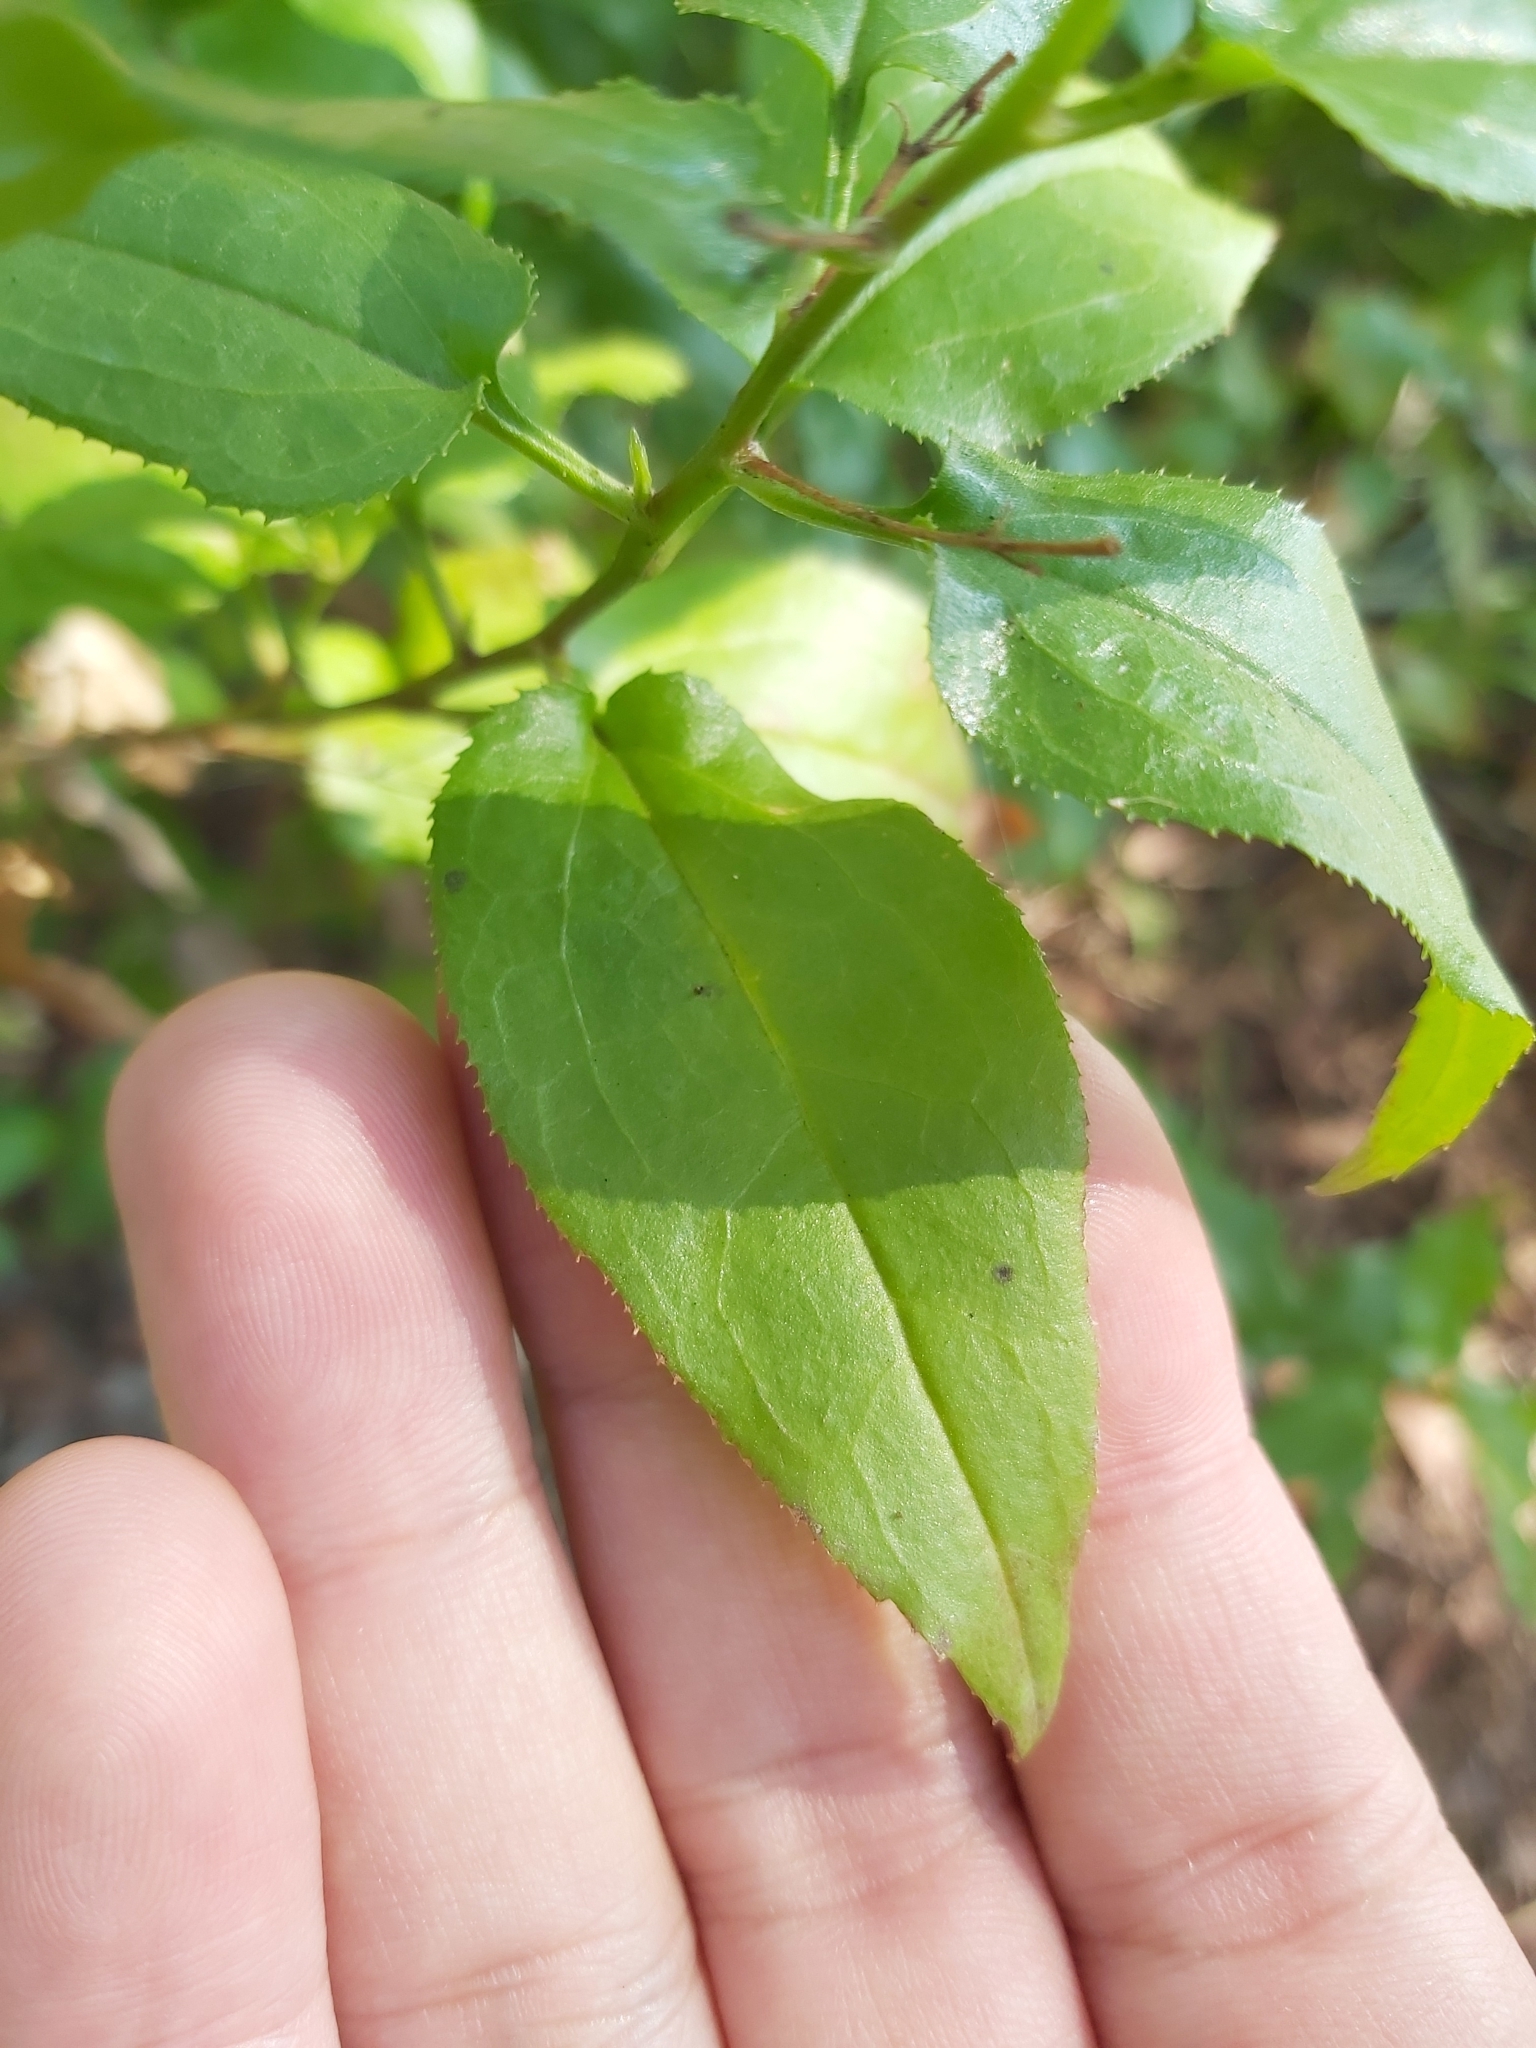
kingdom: Plantae
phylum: Tracheophyta
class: Magnoliopsida
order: Asterales
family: Goodeniaceae
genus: Goodenia
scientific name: Goodenia ovata
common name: Hop goodenia
